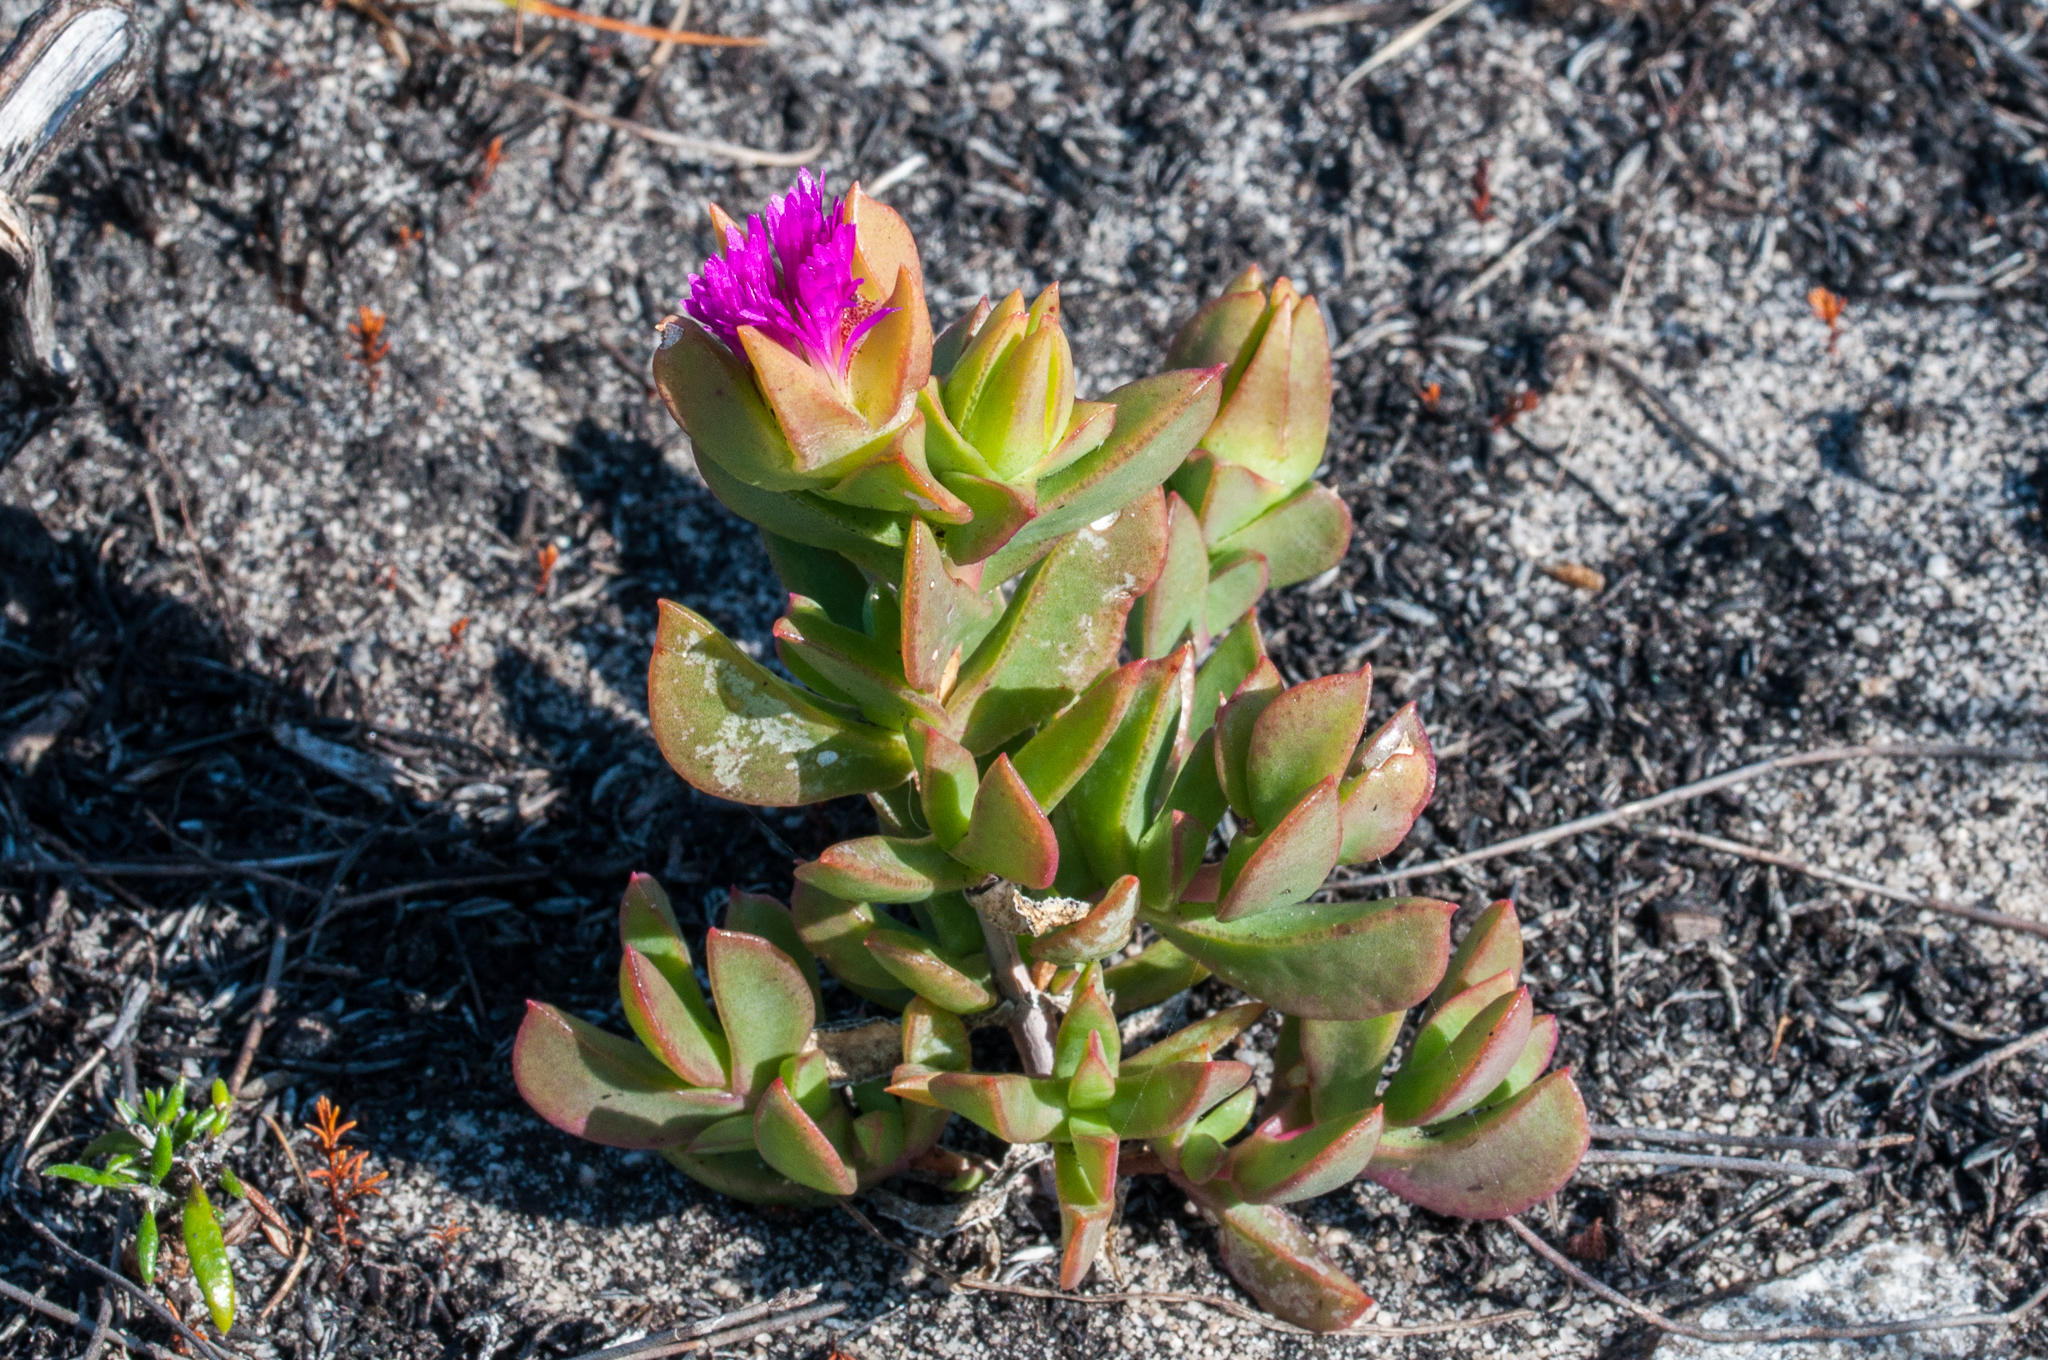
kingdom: Plantae
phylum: Tracheophyta
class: Magnoliopsida
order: Caryophyllales
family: Aizoaceae
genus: Erepsia
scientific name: Erepsia steytlerae
